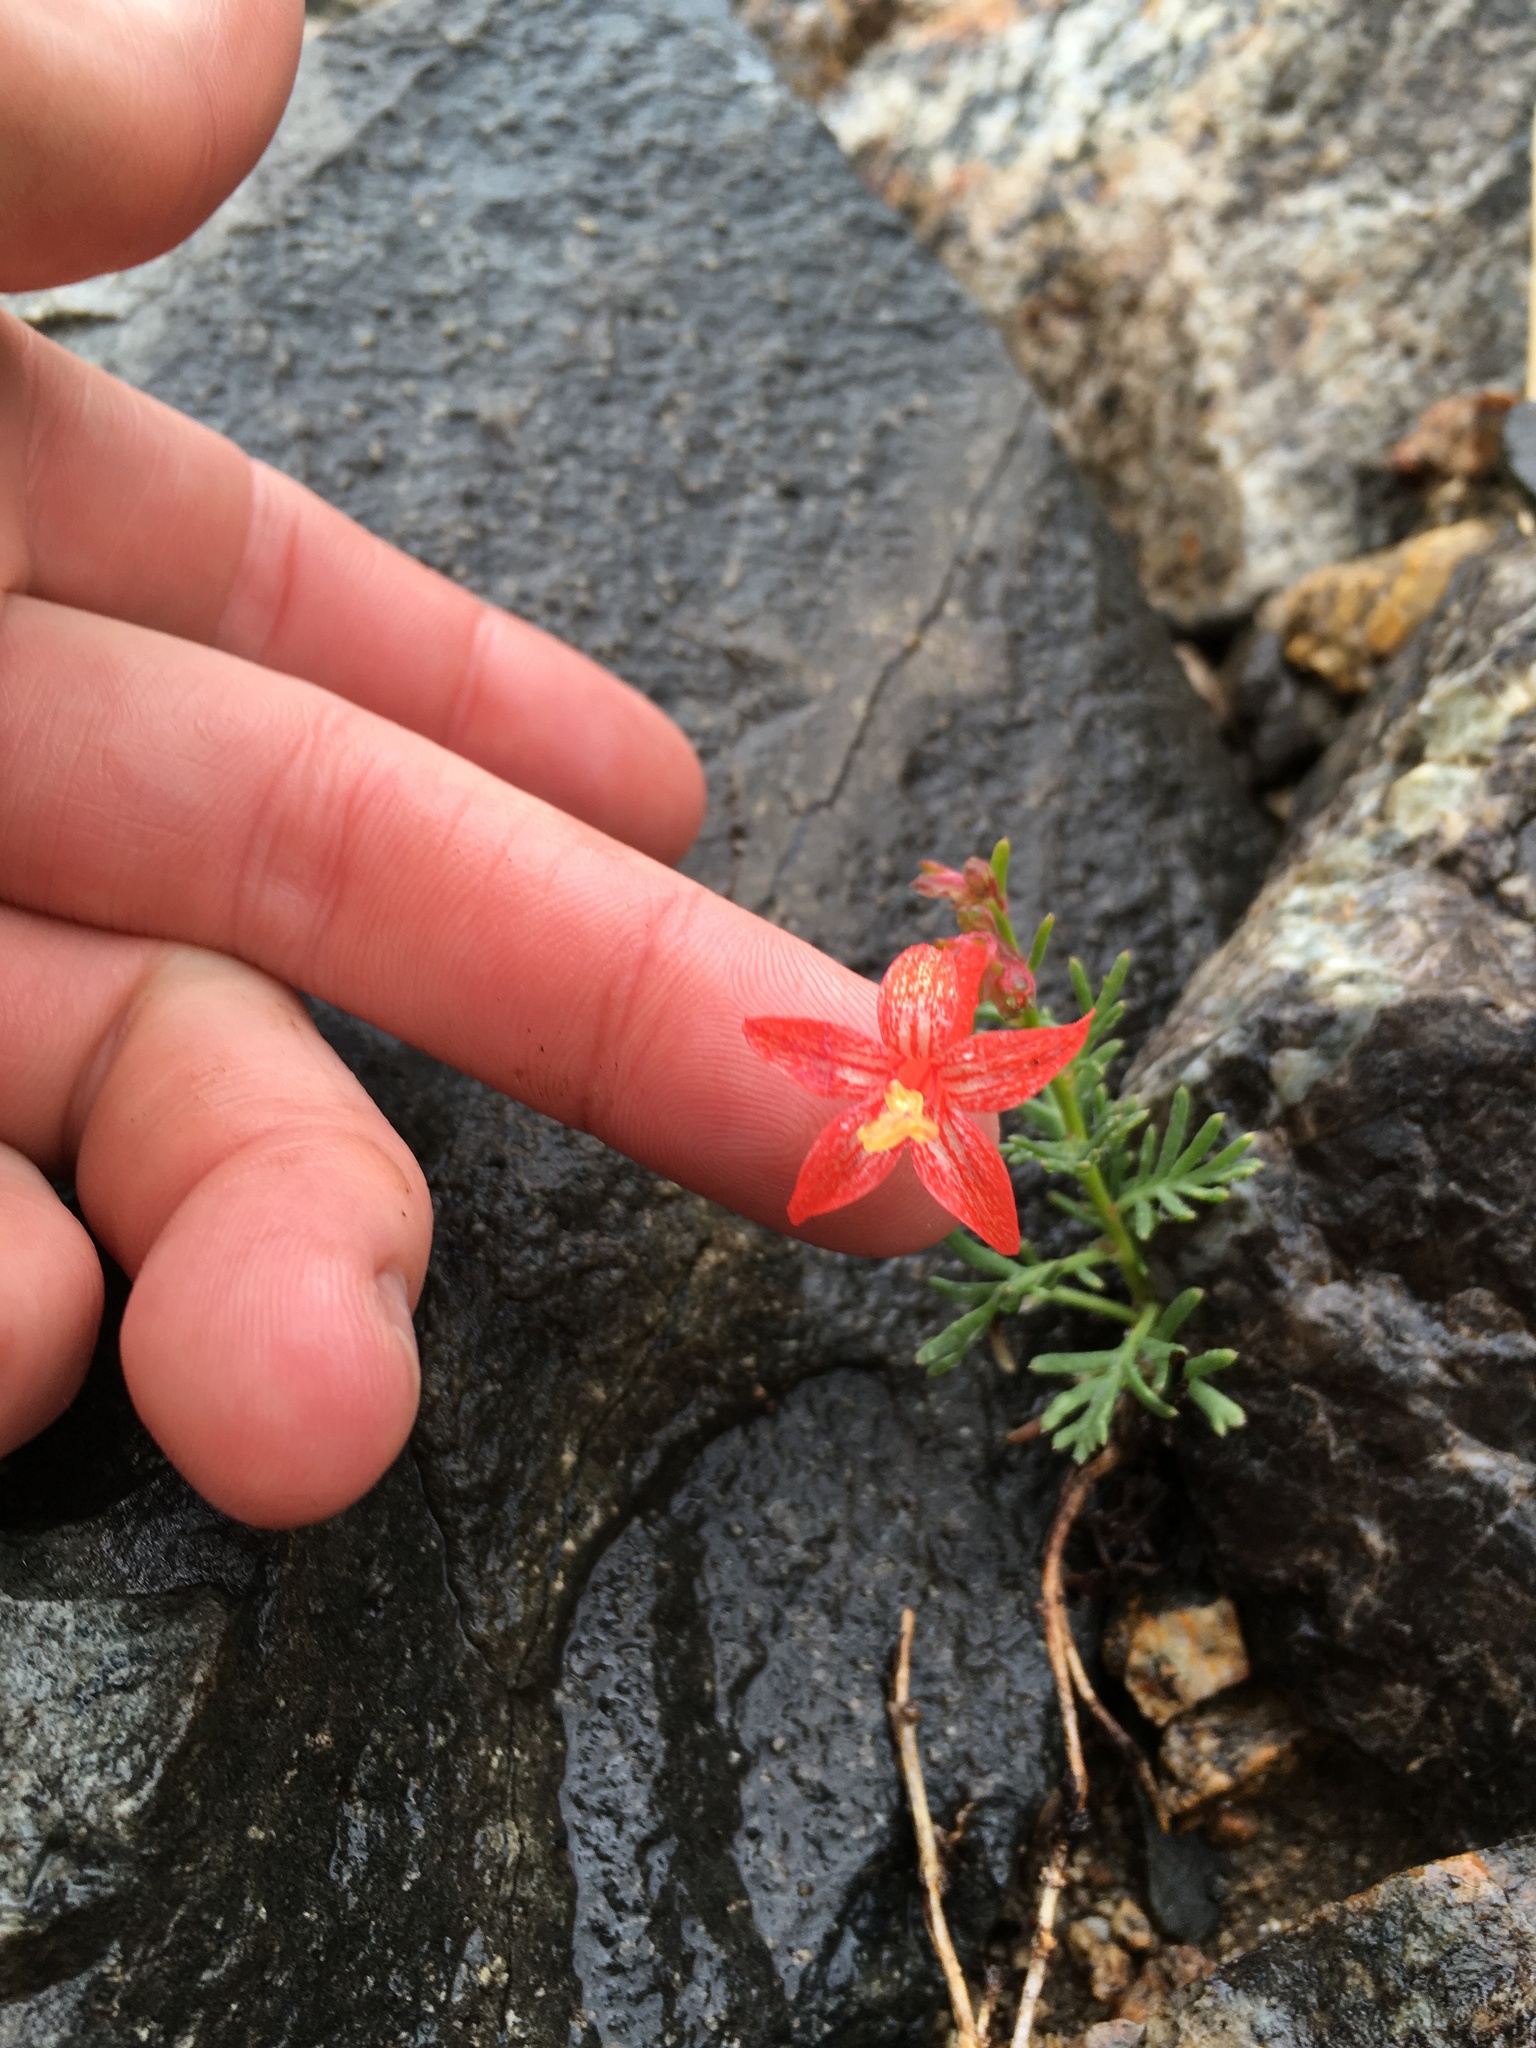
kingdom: Plantae
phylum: Tracheophyta
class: Magnoliopsida
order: Ericales
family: Polemoniaceae
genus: Ipomopsis
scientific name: Ipomopsis aggregata
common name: Scarlet gilia
